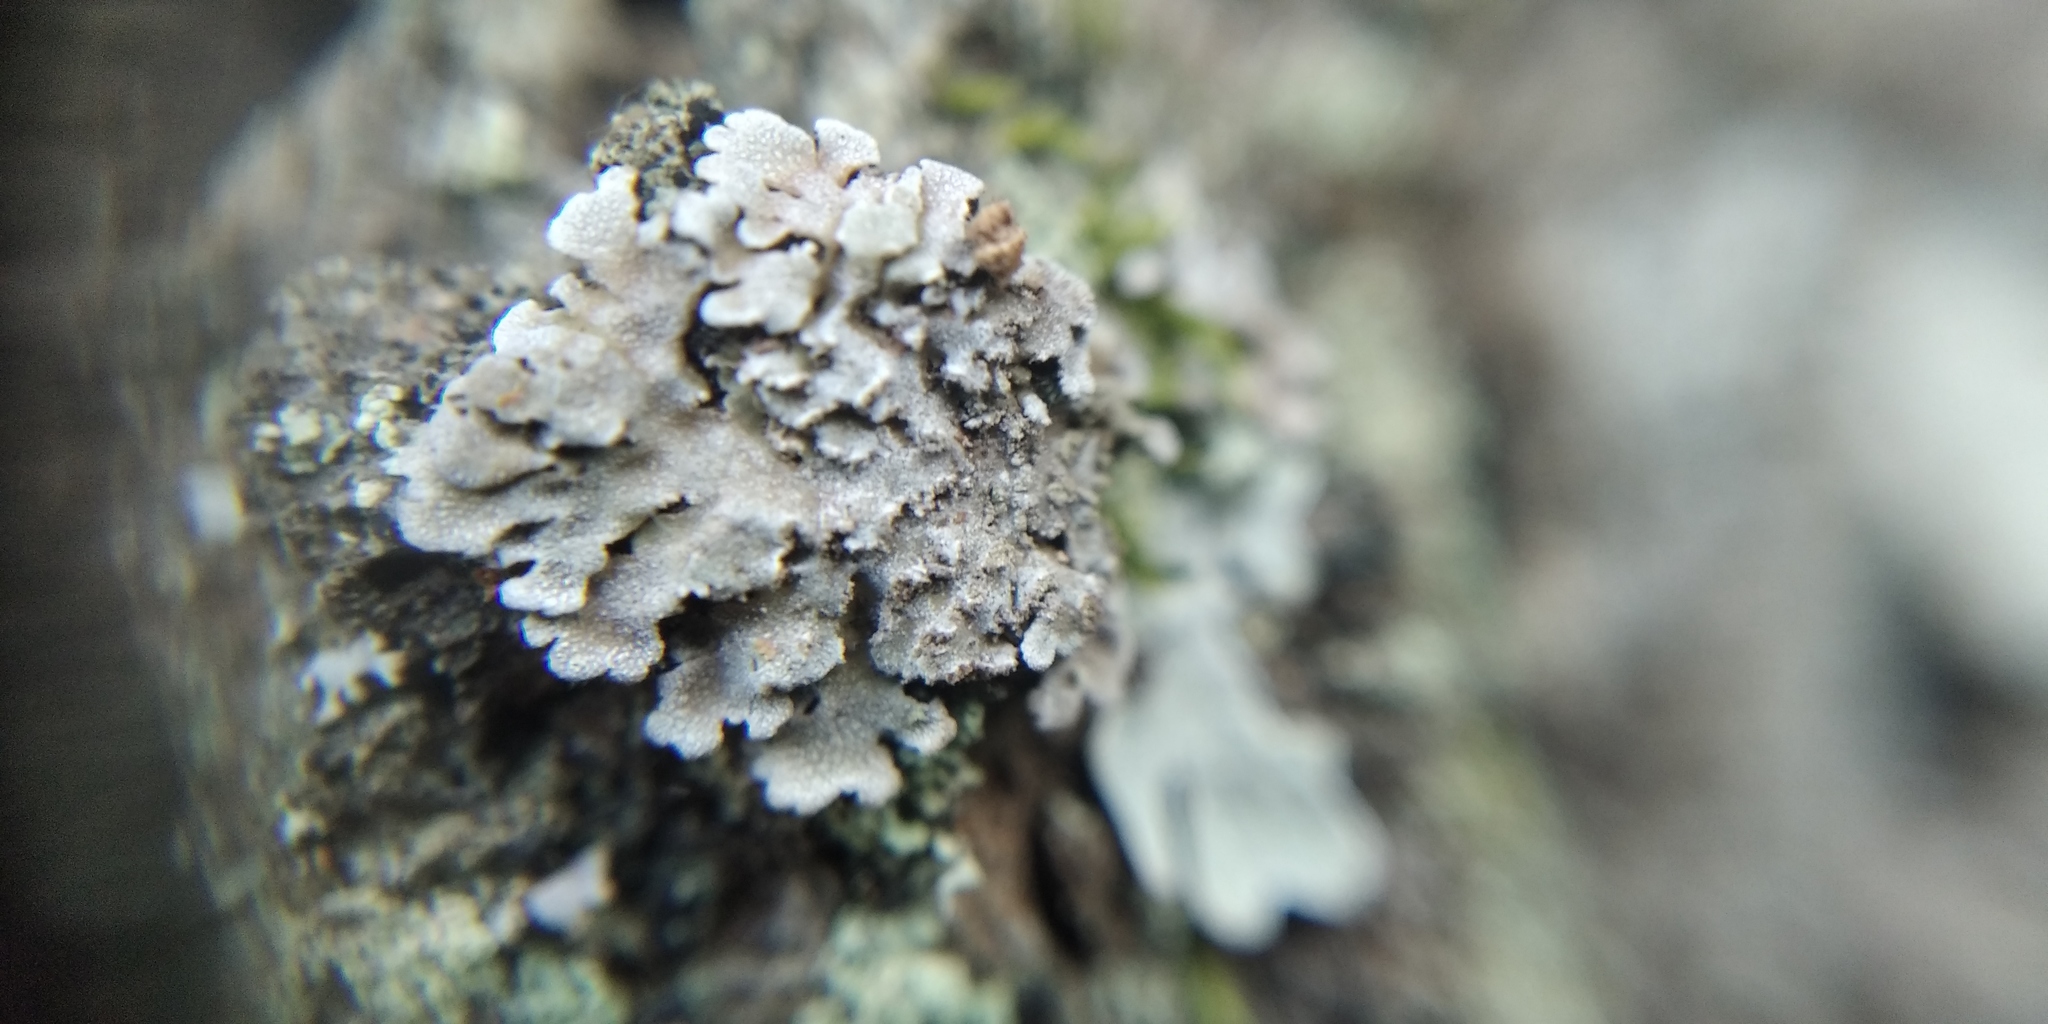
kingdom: Fungi
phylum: Ascomycota
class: Lecanoromycetes
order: Caliciales
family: Physciaceae
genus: Physconia
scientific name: Physconia enteroxantha
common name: Yellow-edged frost lichen
